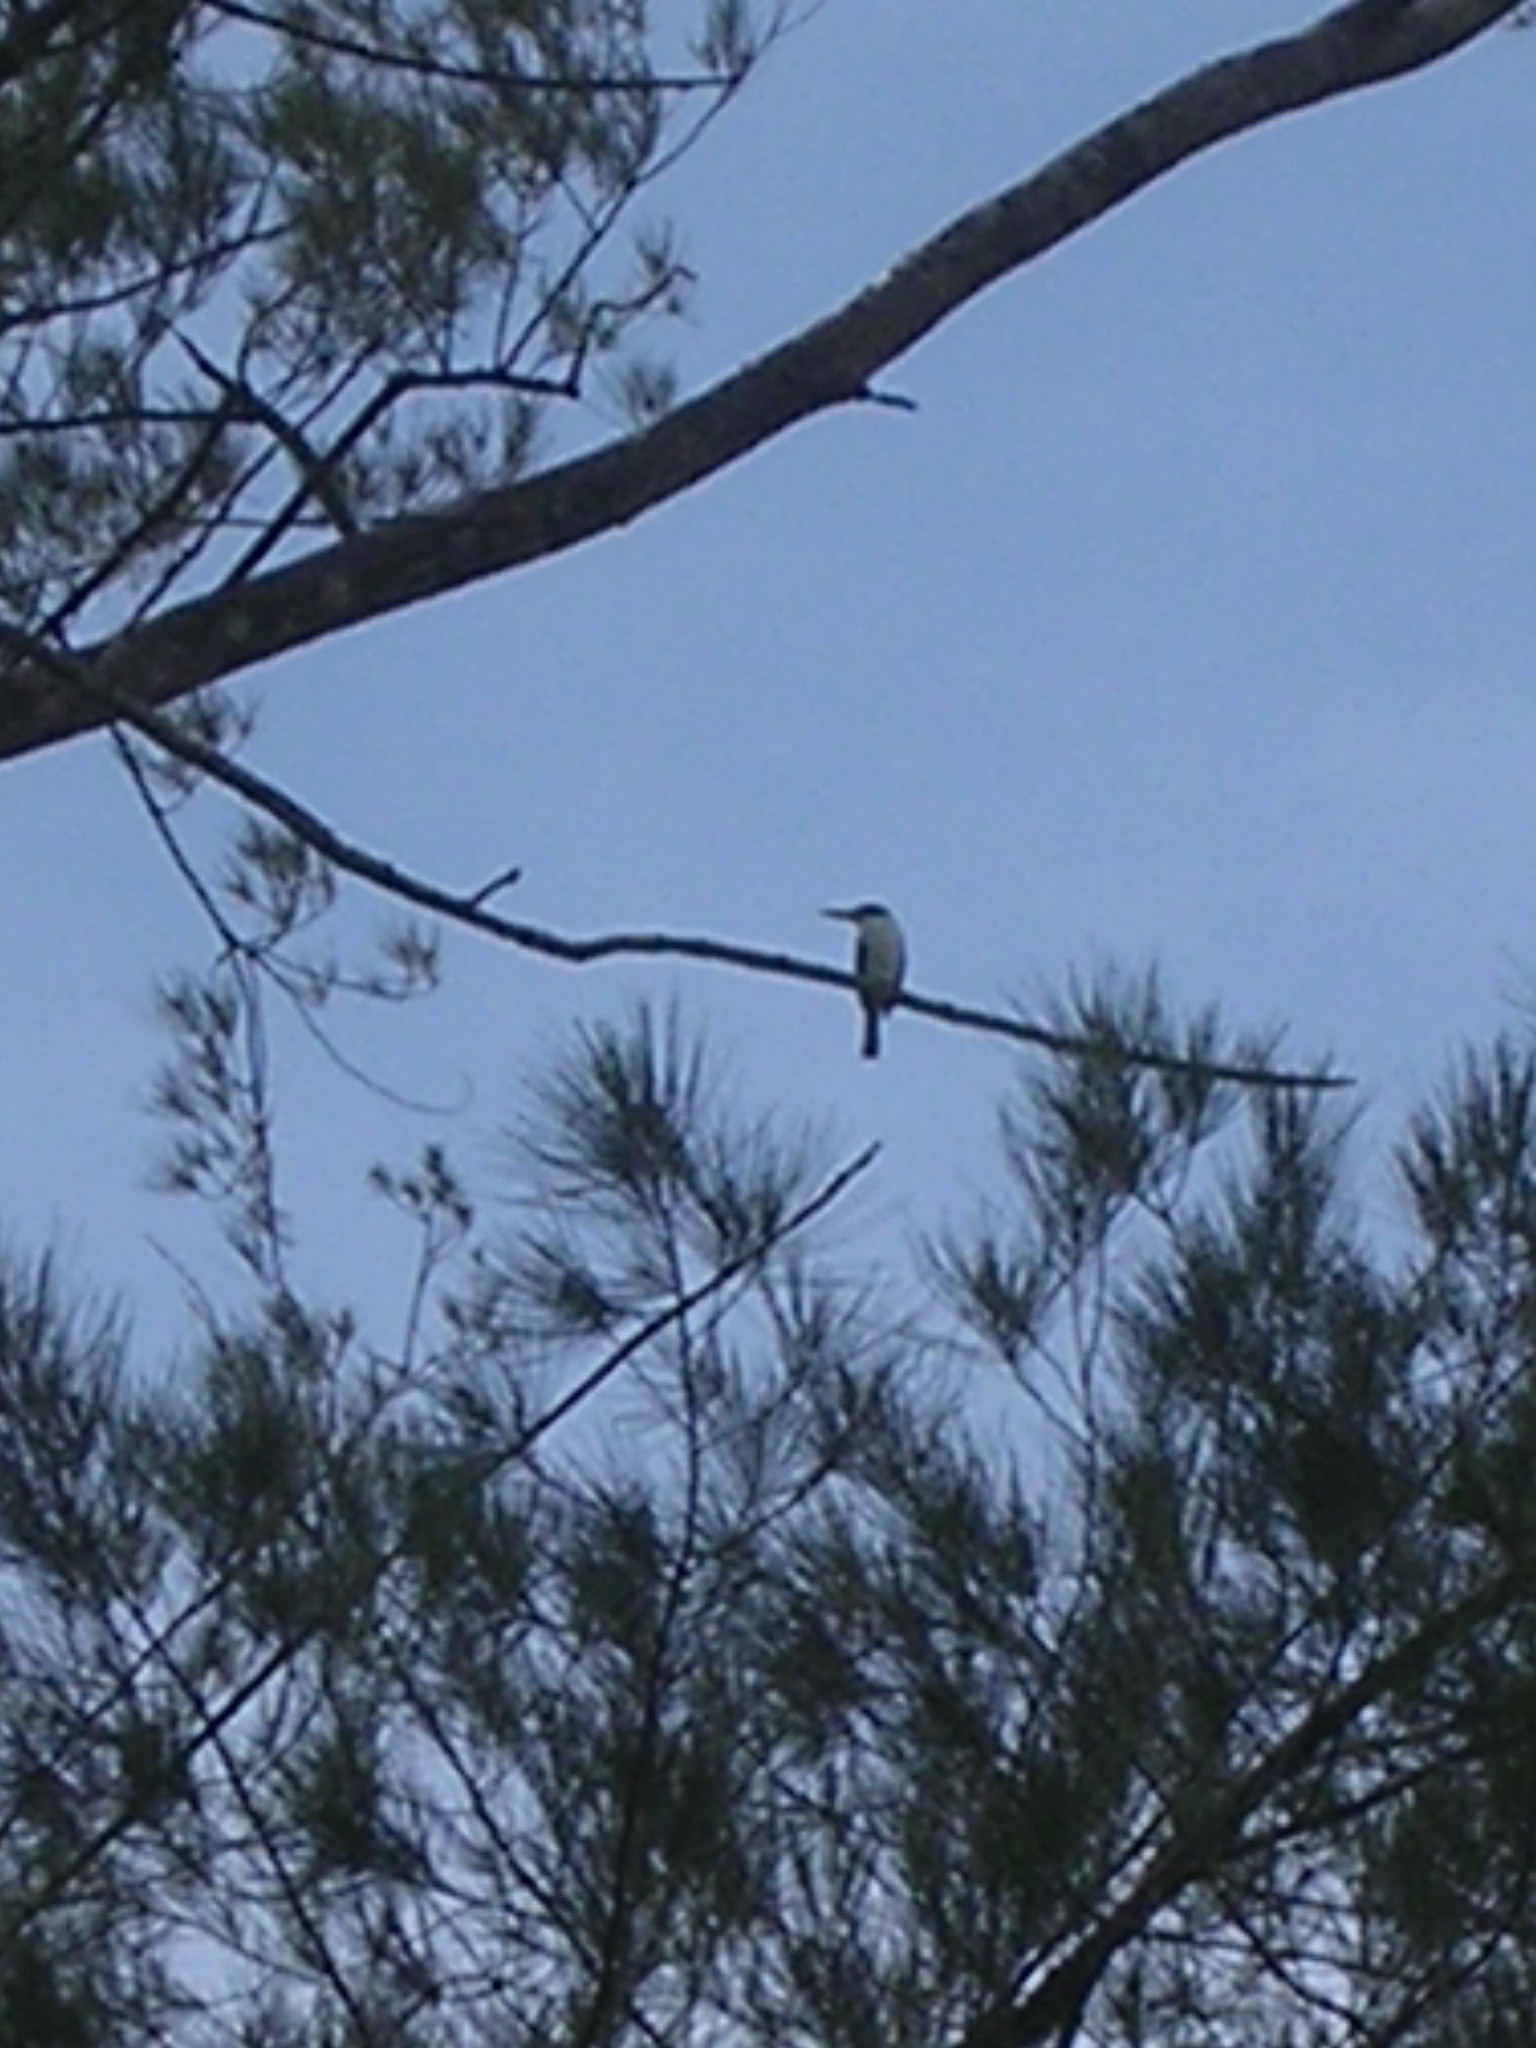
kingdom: Animalia
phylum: Chordata
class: Aves
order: Coraciiformes
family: Alcedinidae
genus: Todiramphus
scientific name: Todiramphus chloris
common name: Collared kingfisher
